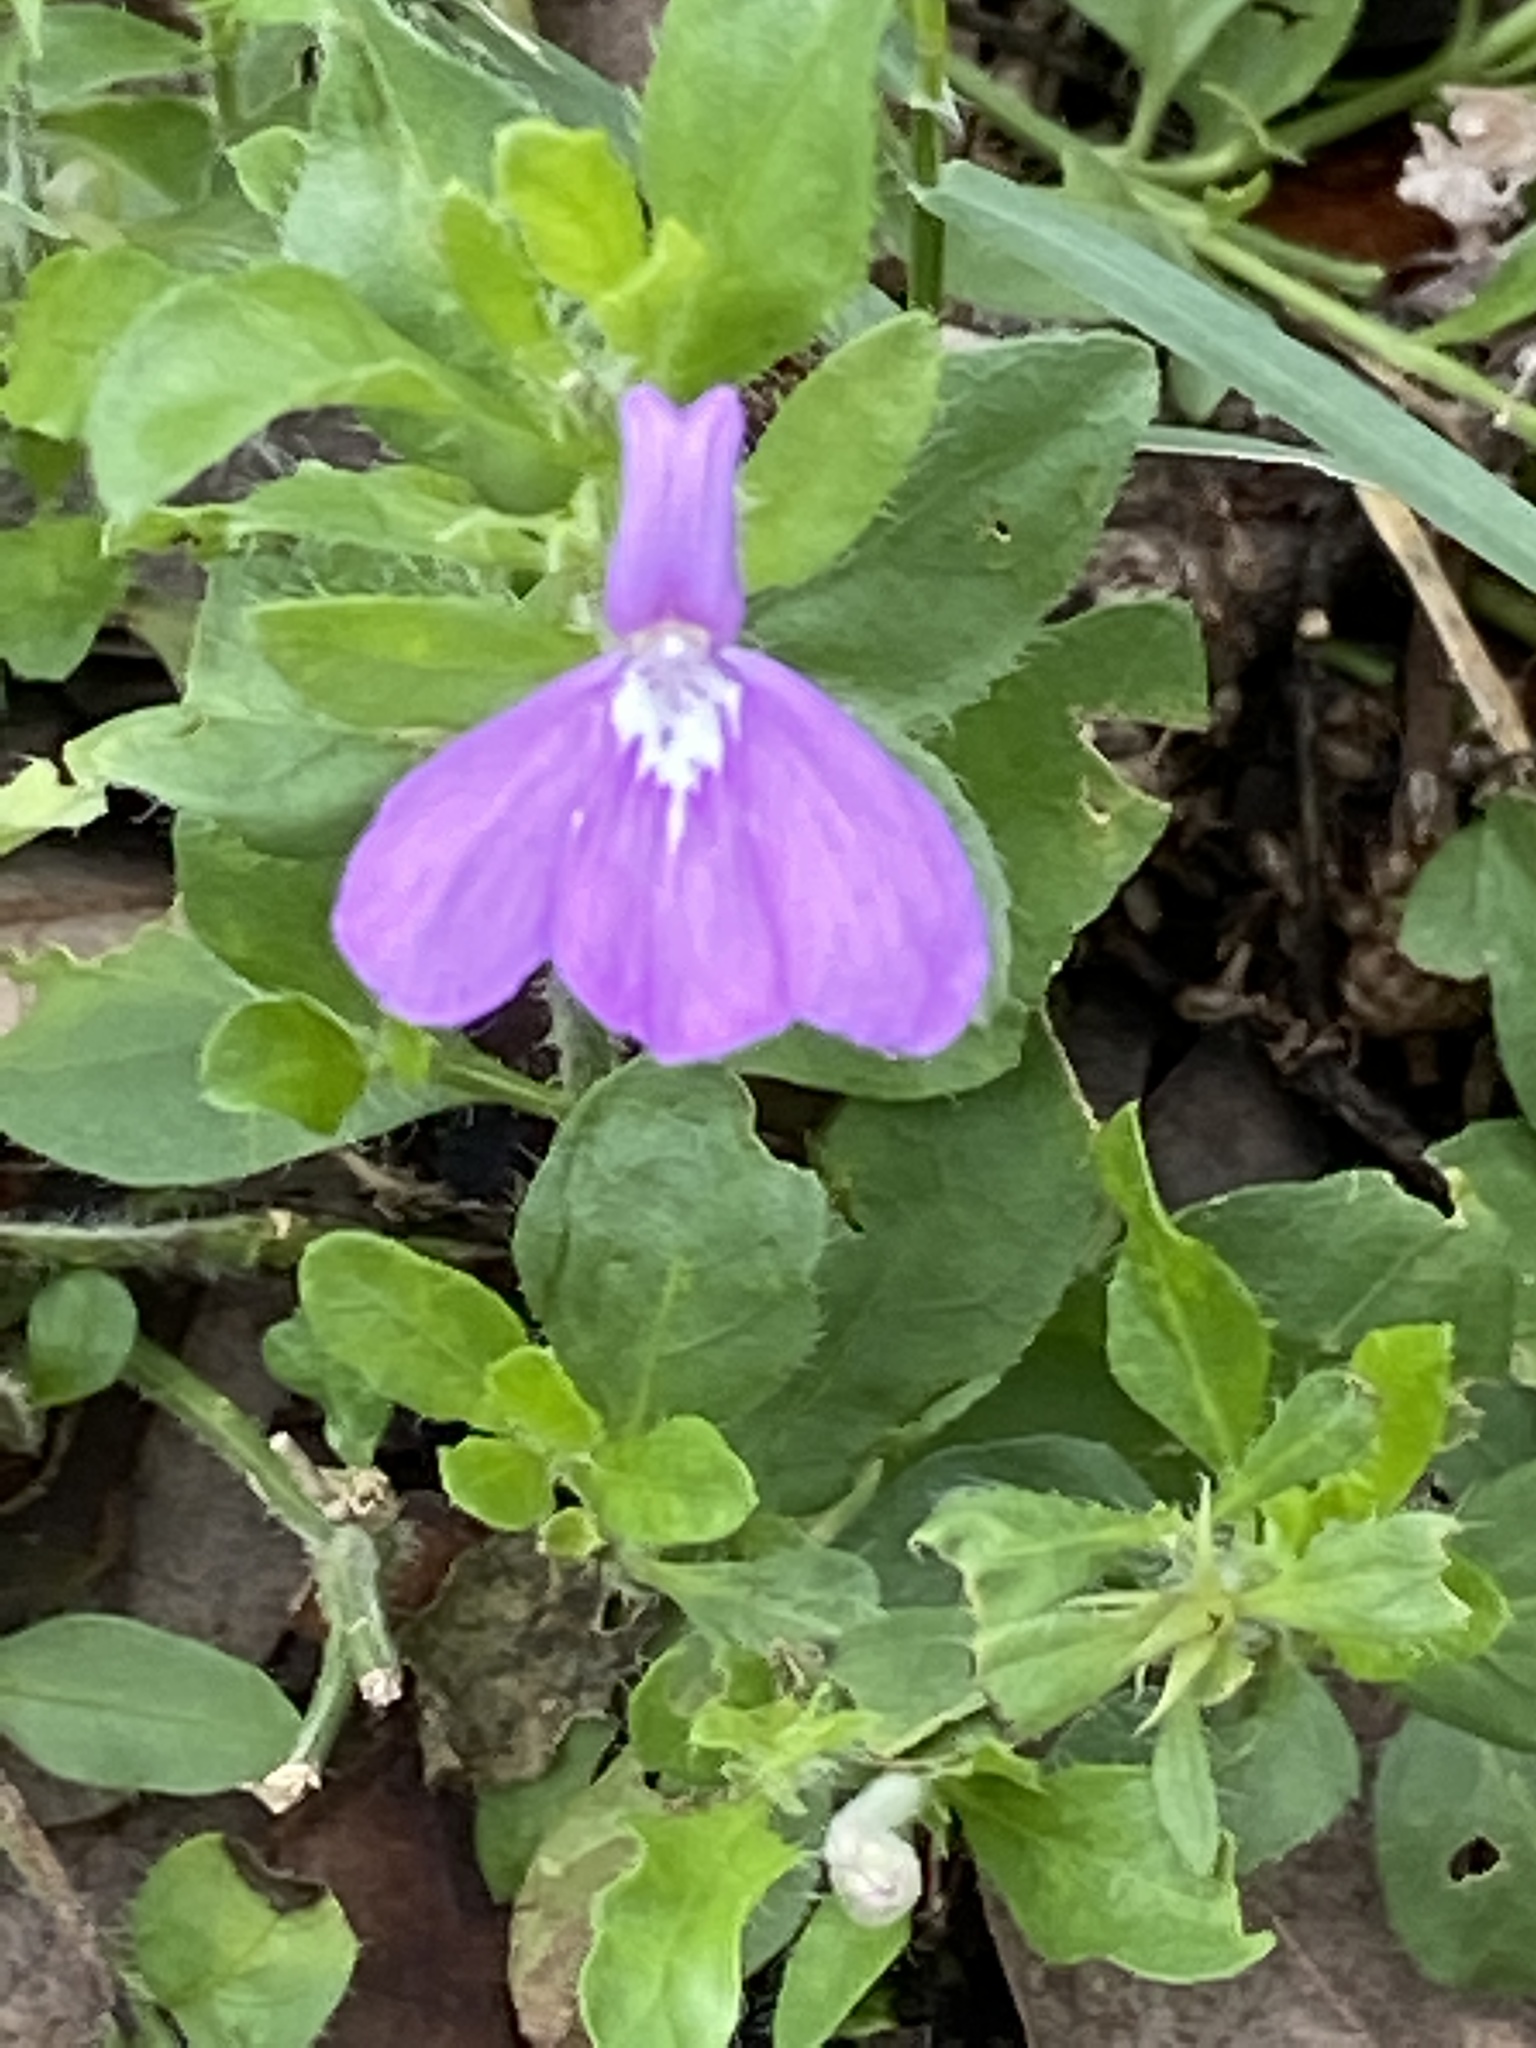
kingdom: Plantae
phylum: Tracheophyta
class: Magnoliopsida
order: Lamiales
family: Acanthaceae
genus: Justicia
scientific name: Justicia pilosella
